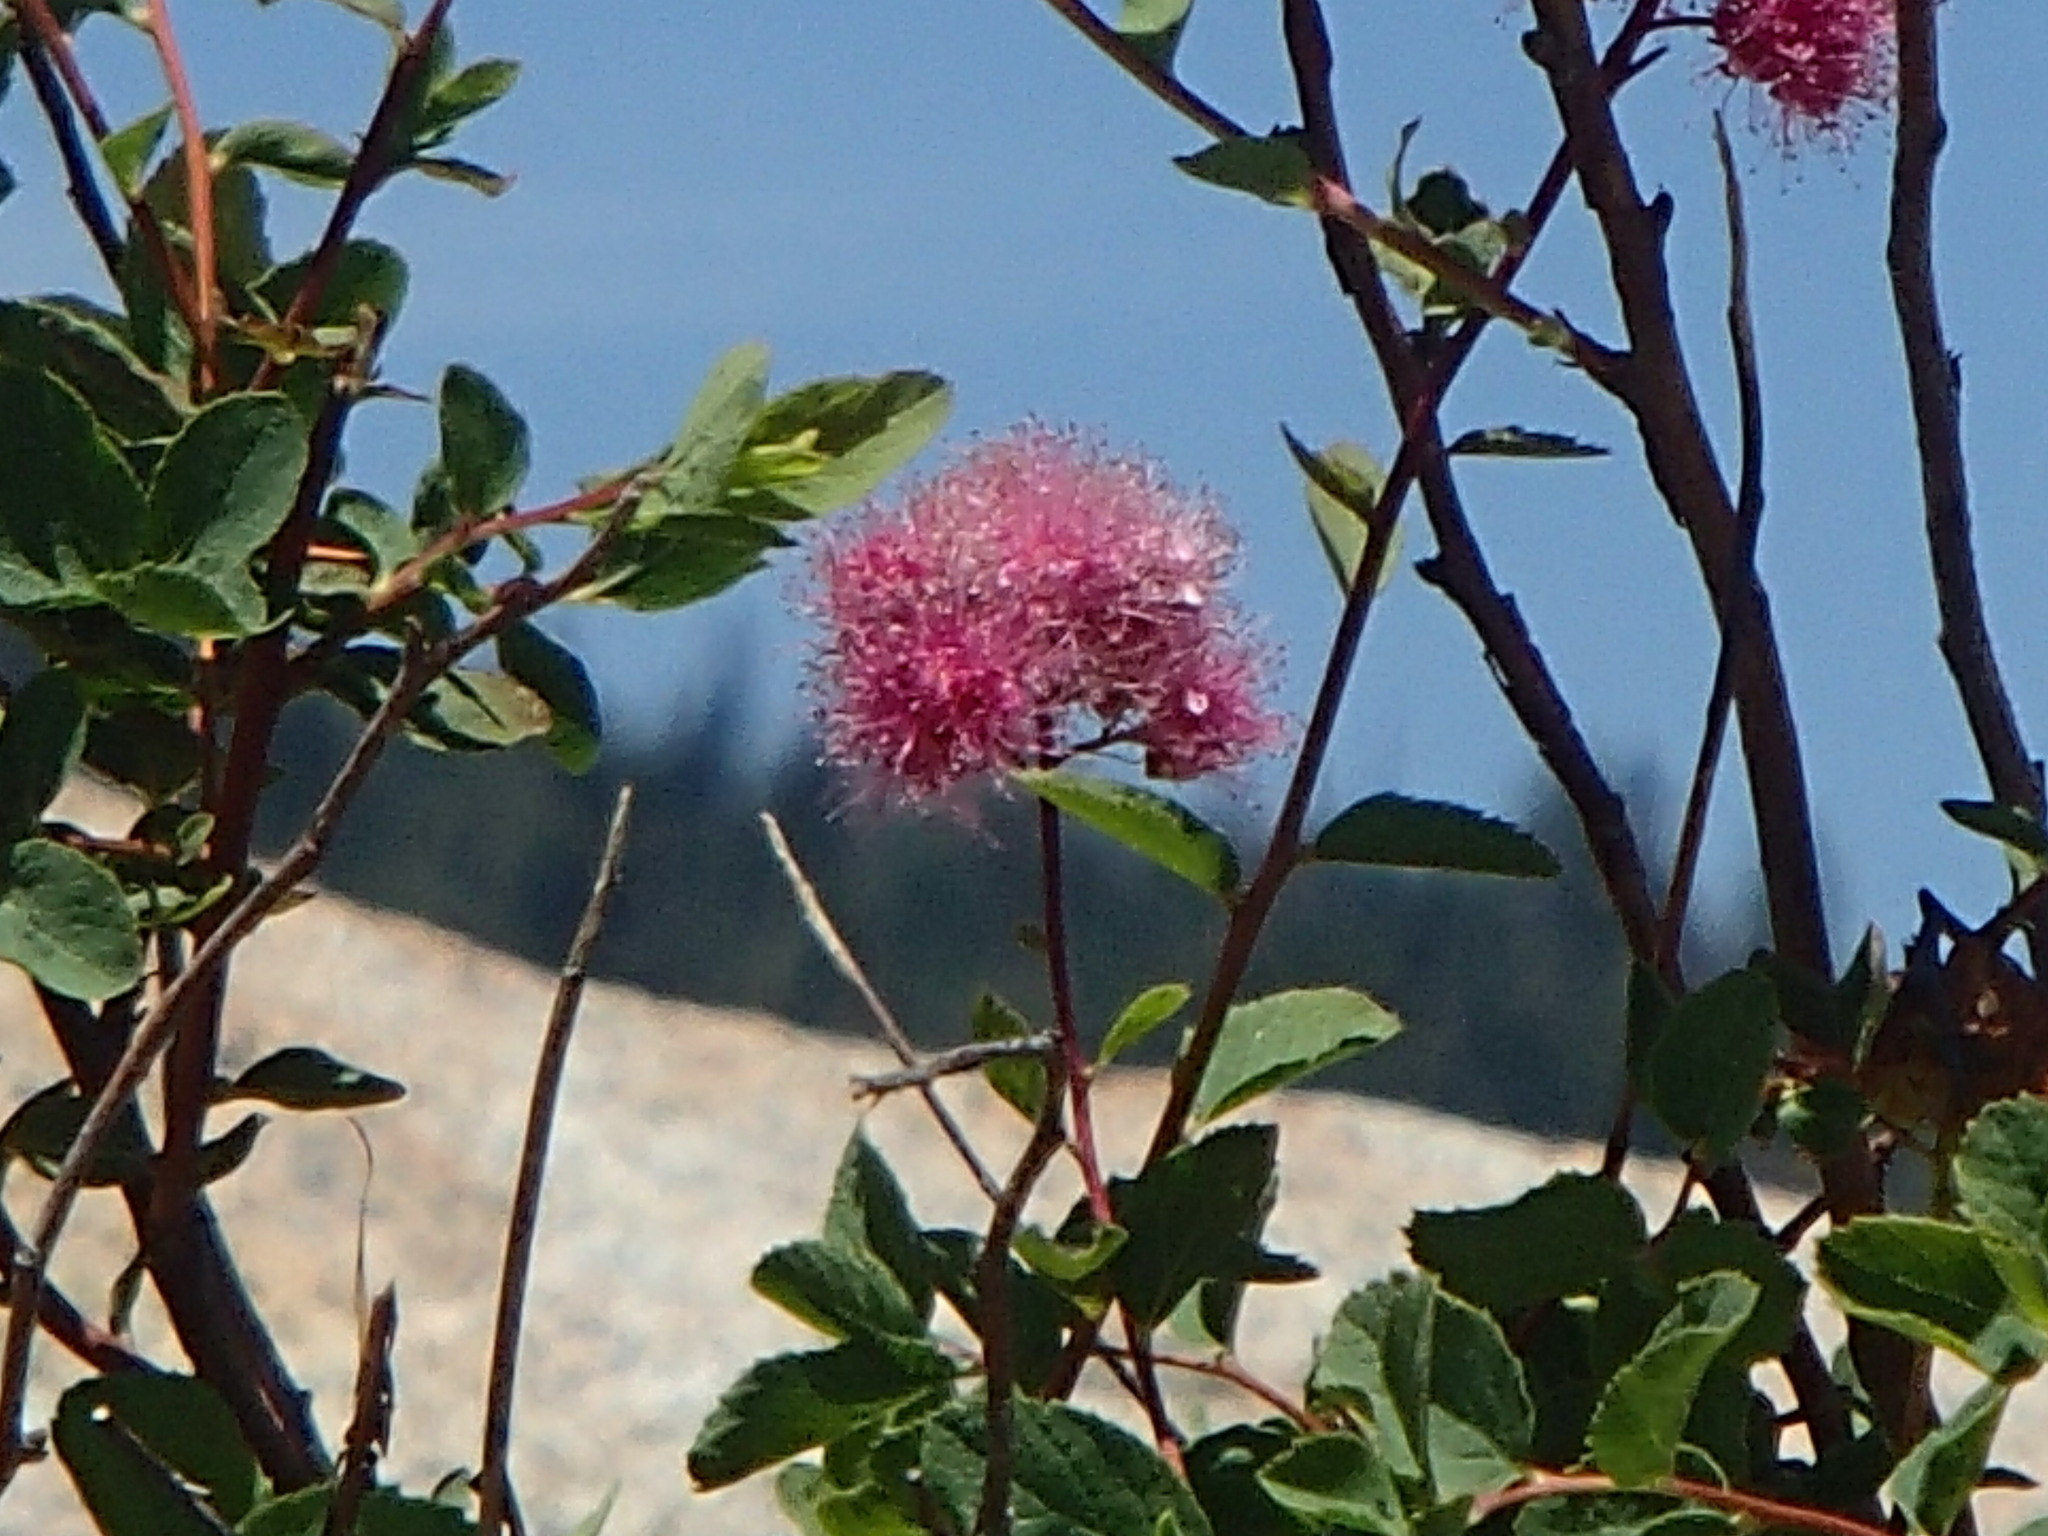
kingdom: Plantae
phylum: Tracheophyta
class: Magnoliopsida
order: Rosales
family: Rosaceae
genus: Spiraea
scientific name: Spiraea splendens
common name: Subalpine meadowsweet
